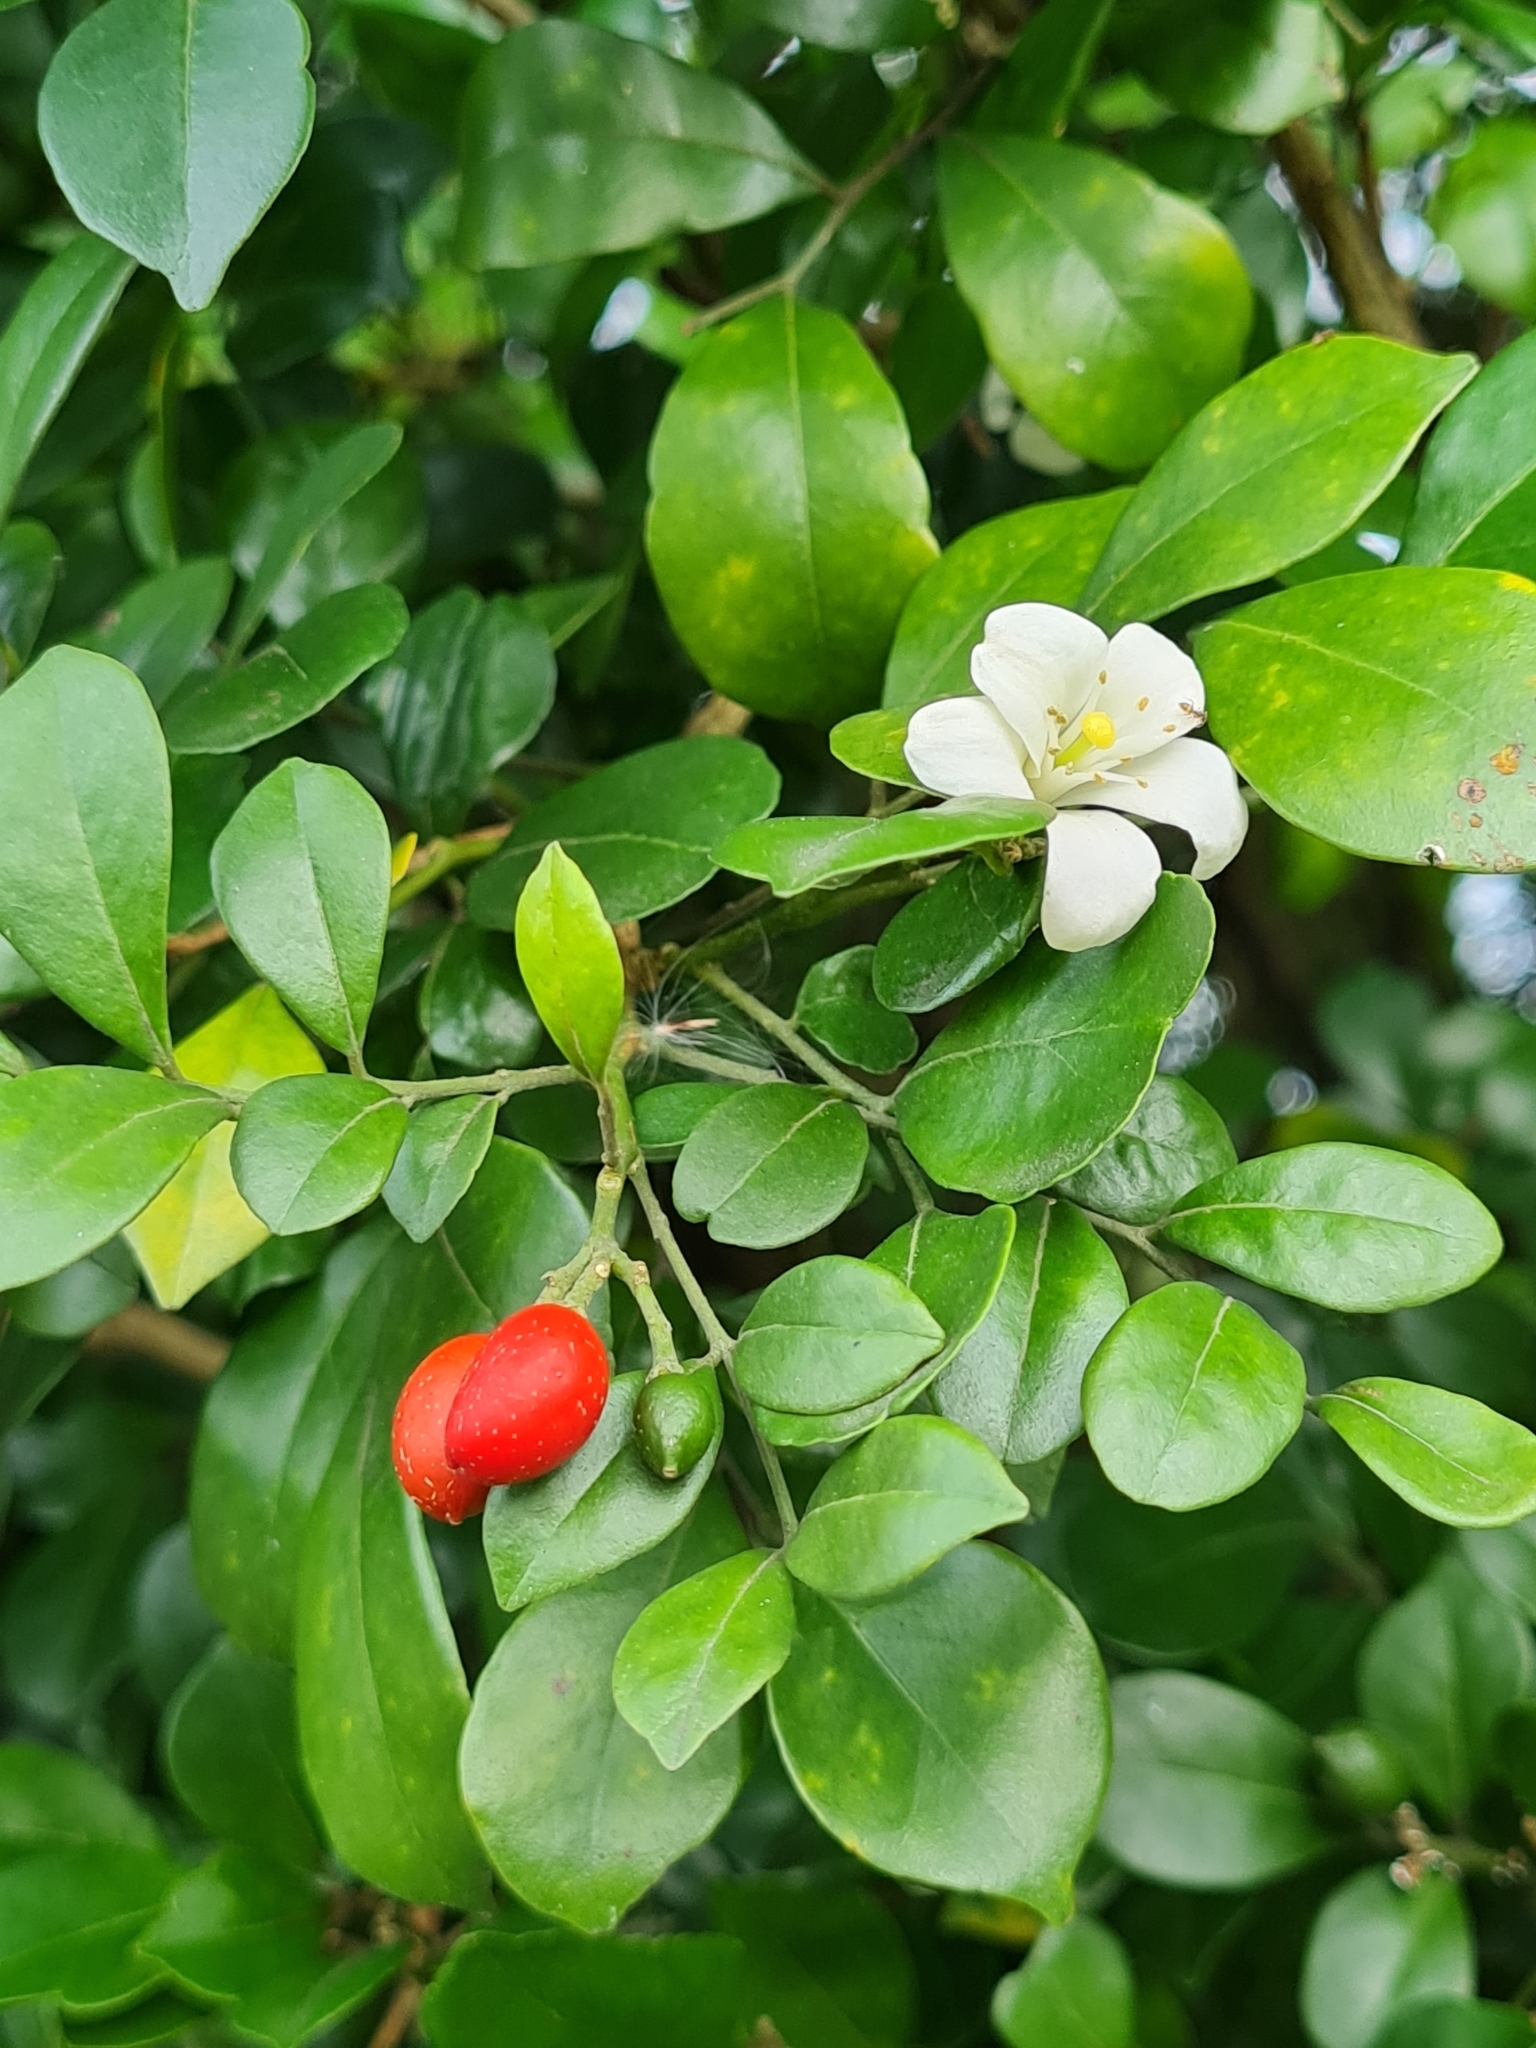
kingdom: Plantae
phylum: Tracheophyta
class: Magnoliopsida
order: Sapindales
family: Rutaceae
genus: Murraya
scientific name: Murraya paniculata
